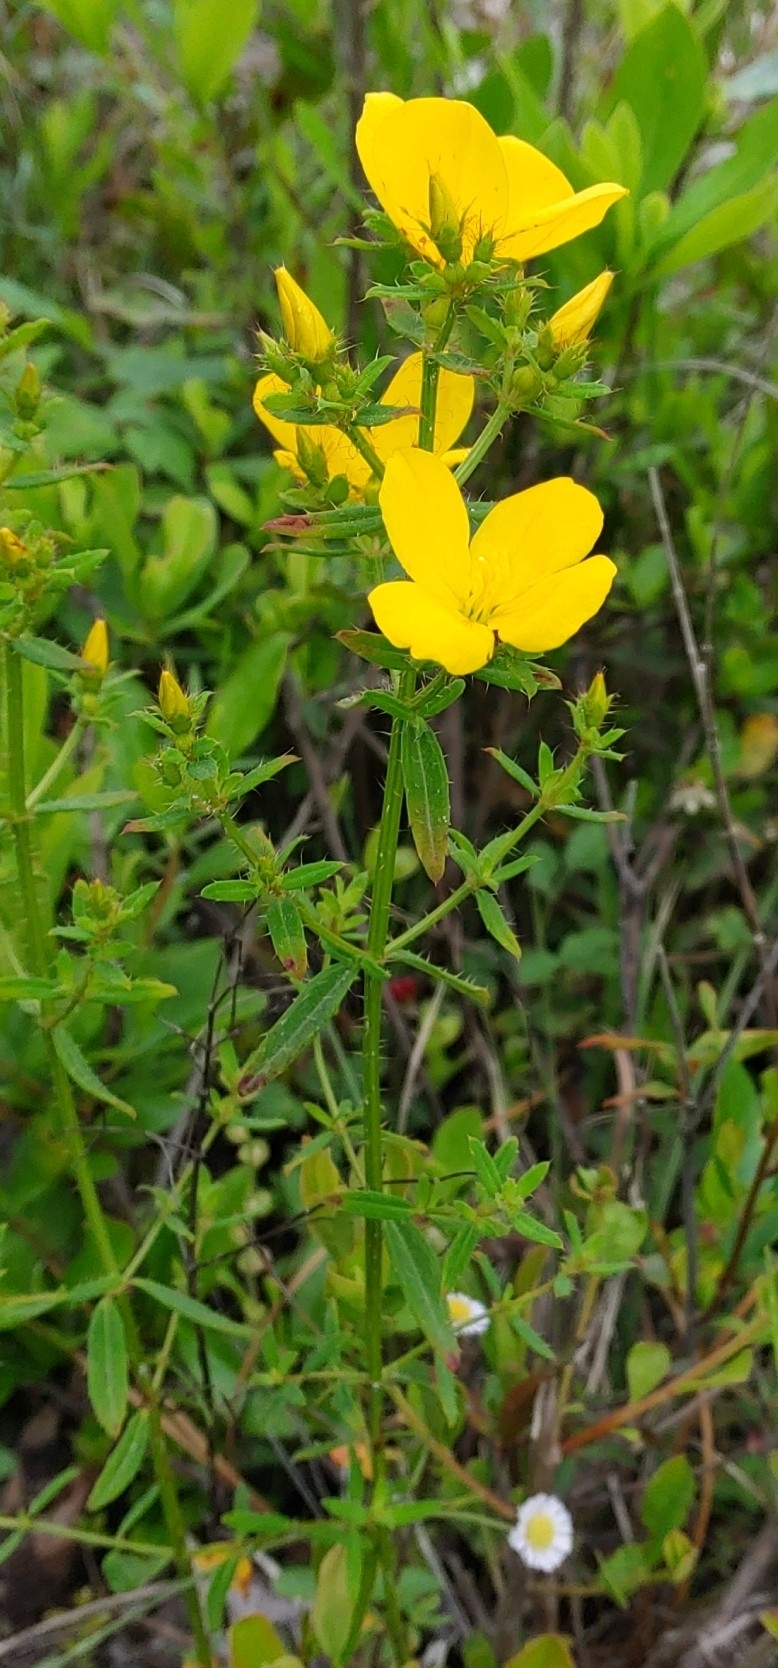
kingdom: Plantae
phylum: Tracheophyta
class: Magnoliopsida
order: Myrtales
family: Melastomataceae
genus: Rhexia
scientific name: Rhexia lutea
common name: Golden meadow-beauty
